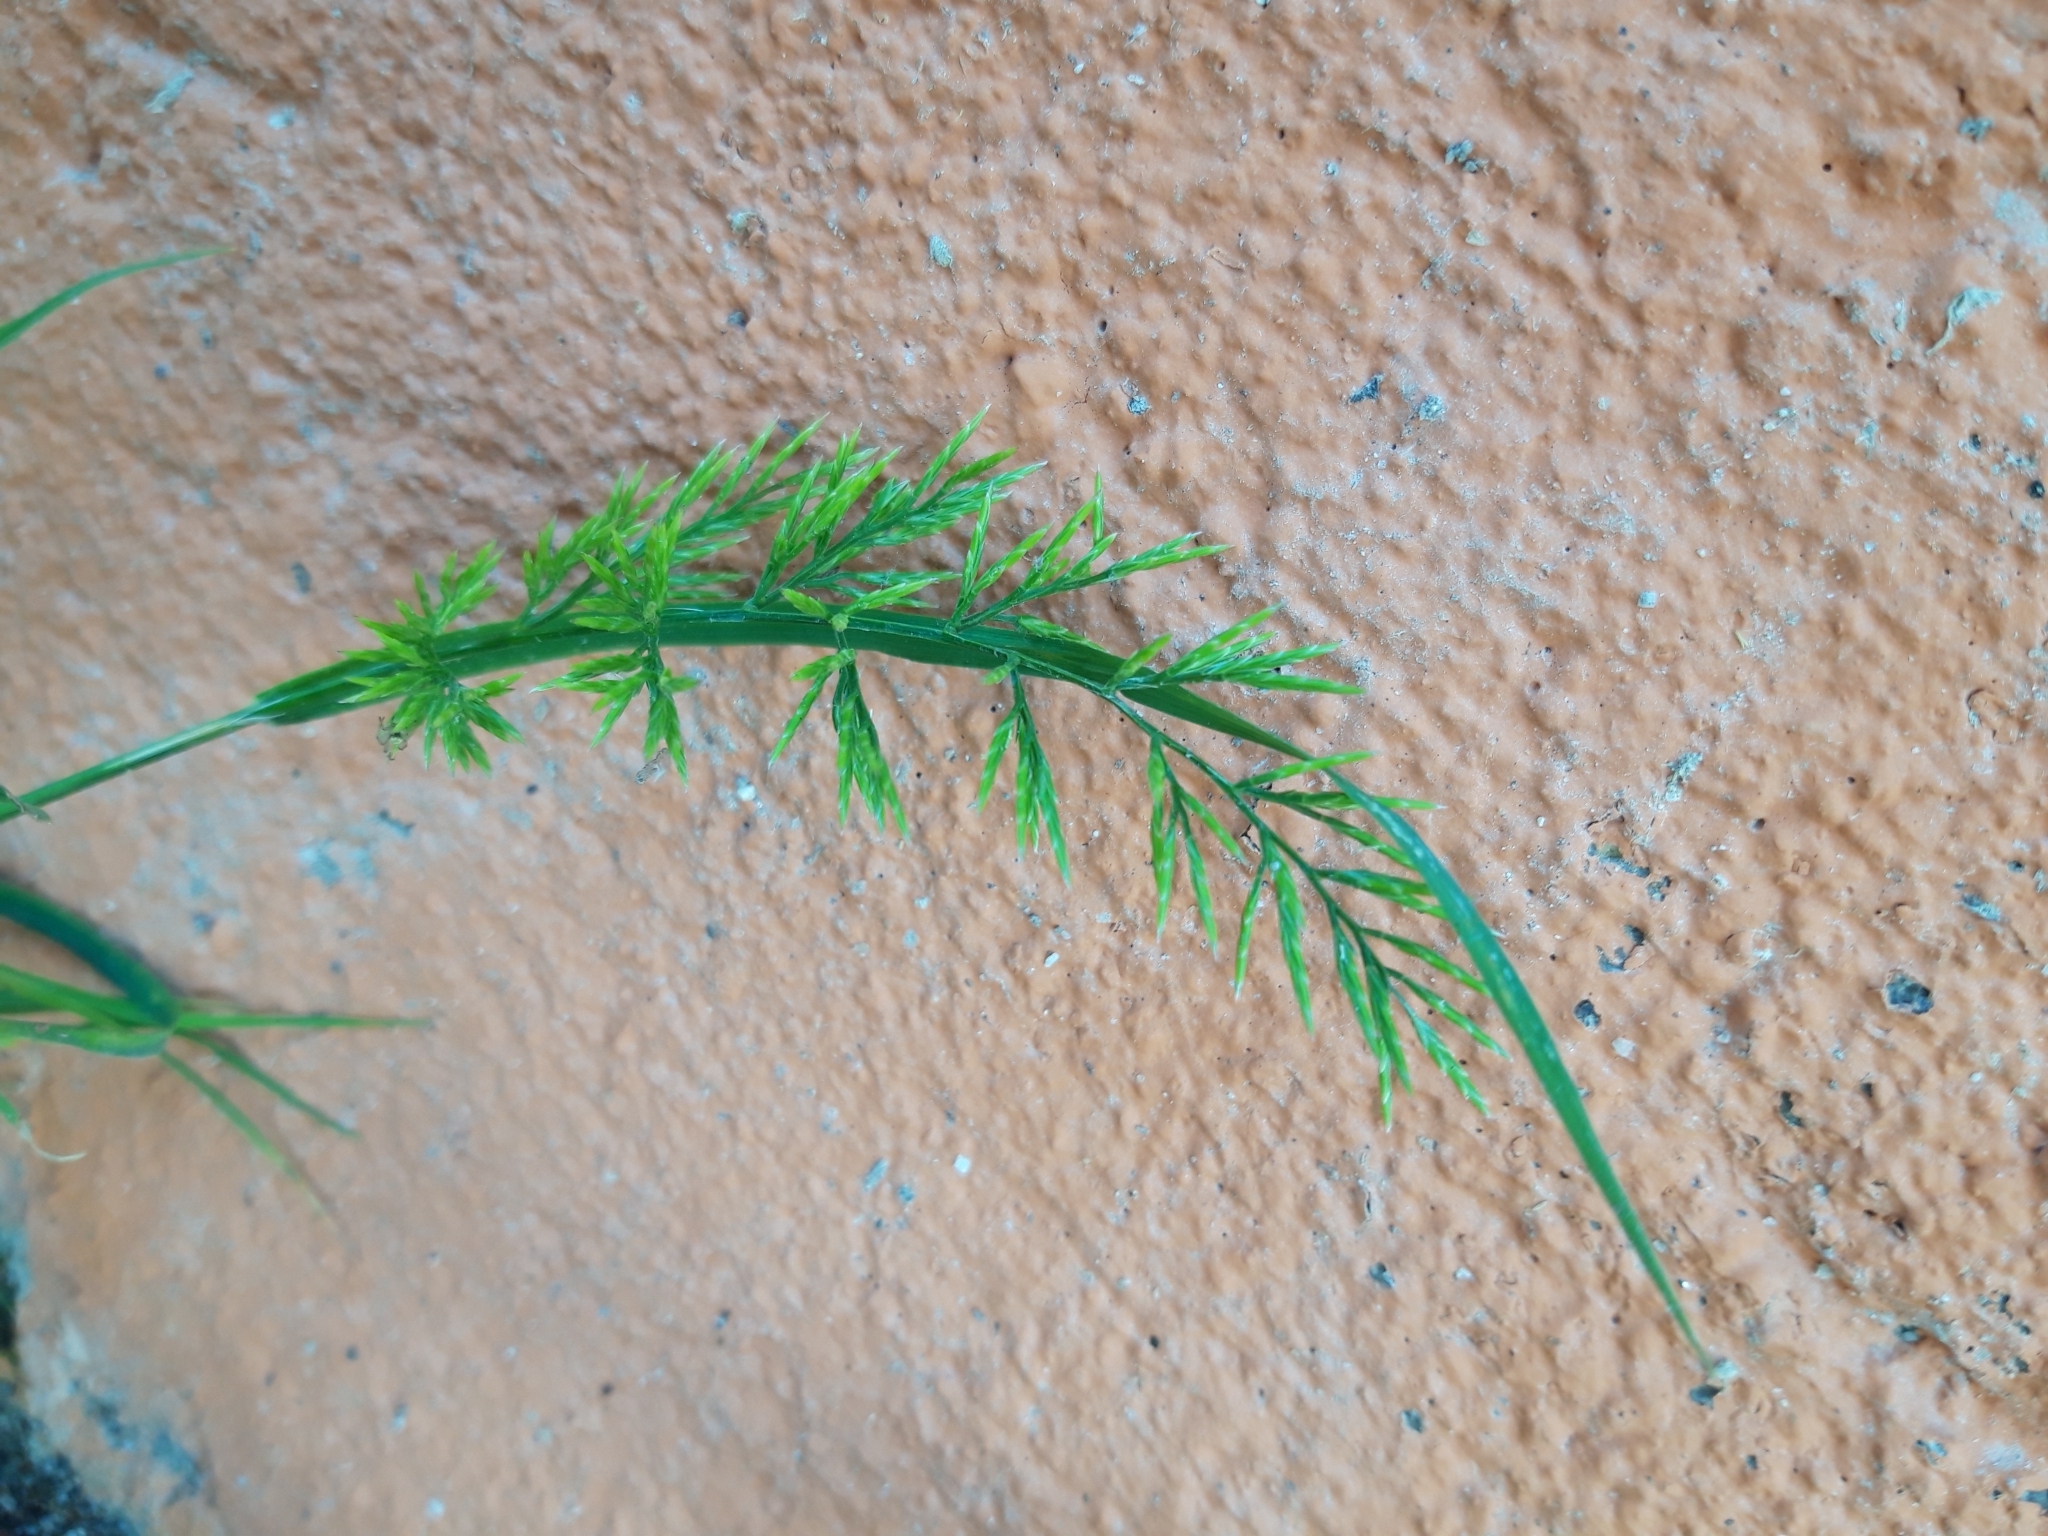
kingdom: Plantae
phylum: Tracheophyta
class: Liliopsida
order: Poales
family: Poaceae
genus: Catapodium
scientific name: Catapodium rigidum
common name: Fern-grass
